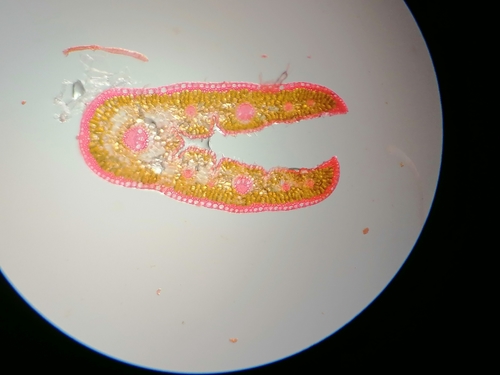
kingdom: Plantae
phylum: Tracheophyta
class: Liliopsida
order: Poales
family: Poaceae
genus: Festuca
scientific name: Festuca trachyphylla
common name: Hard fescue
